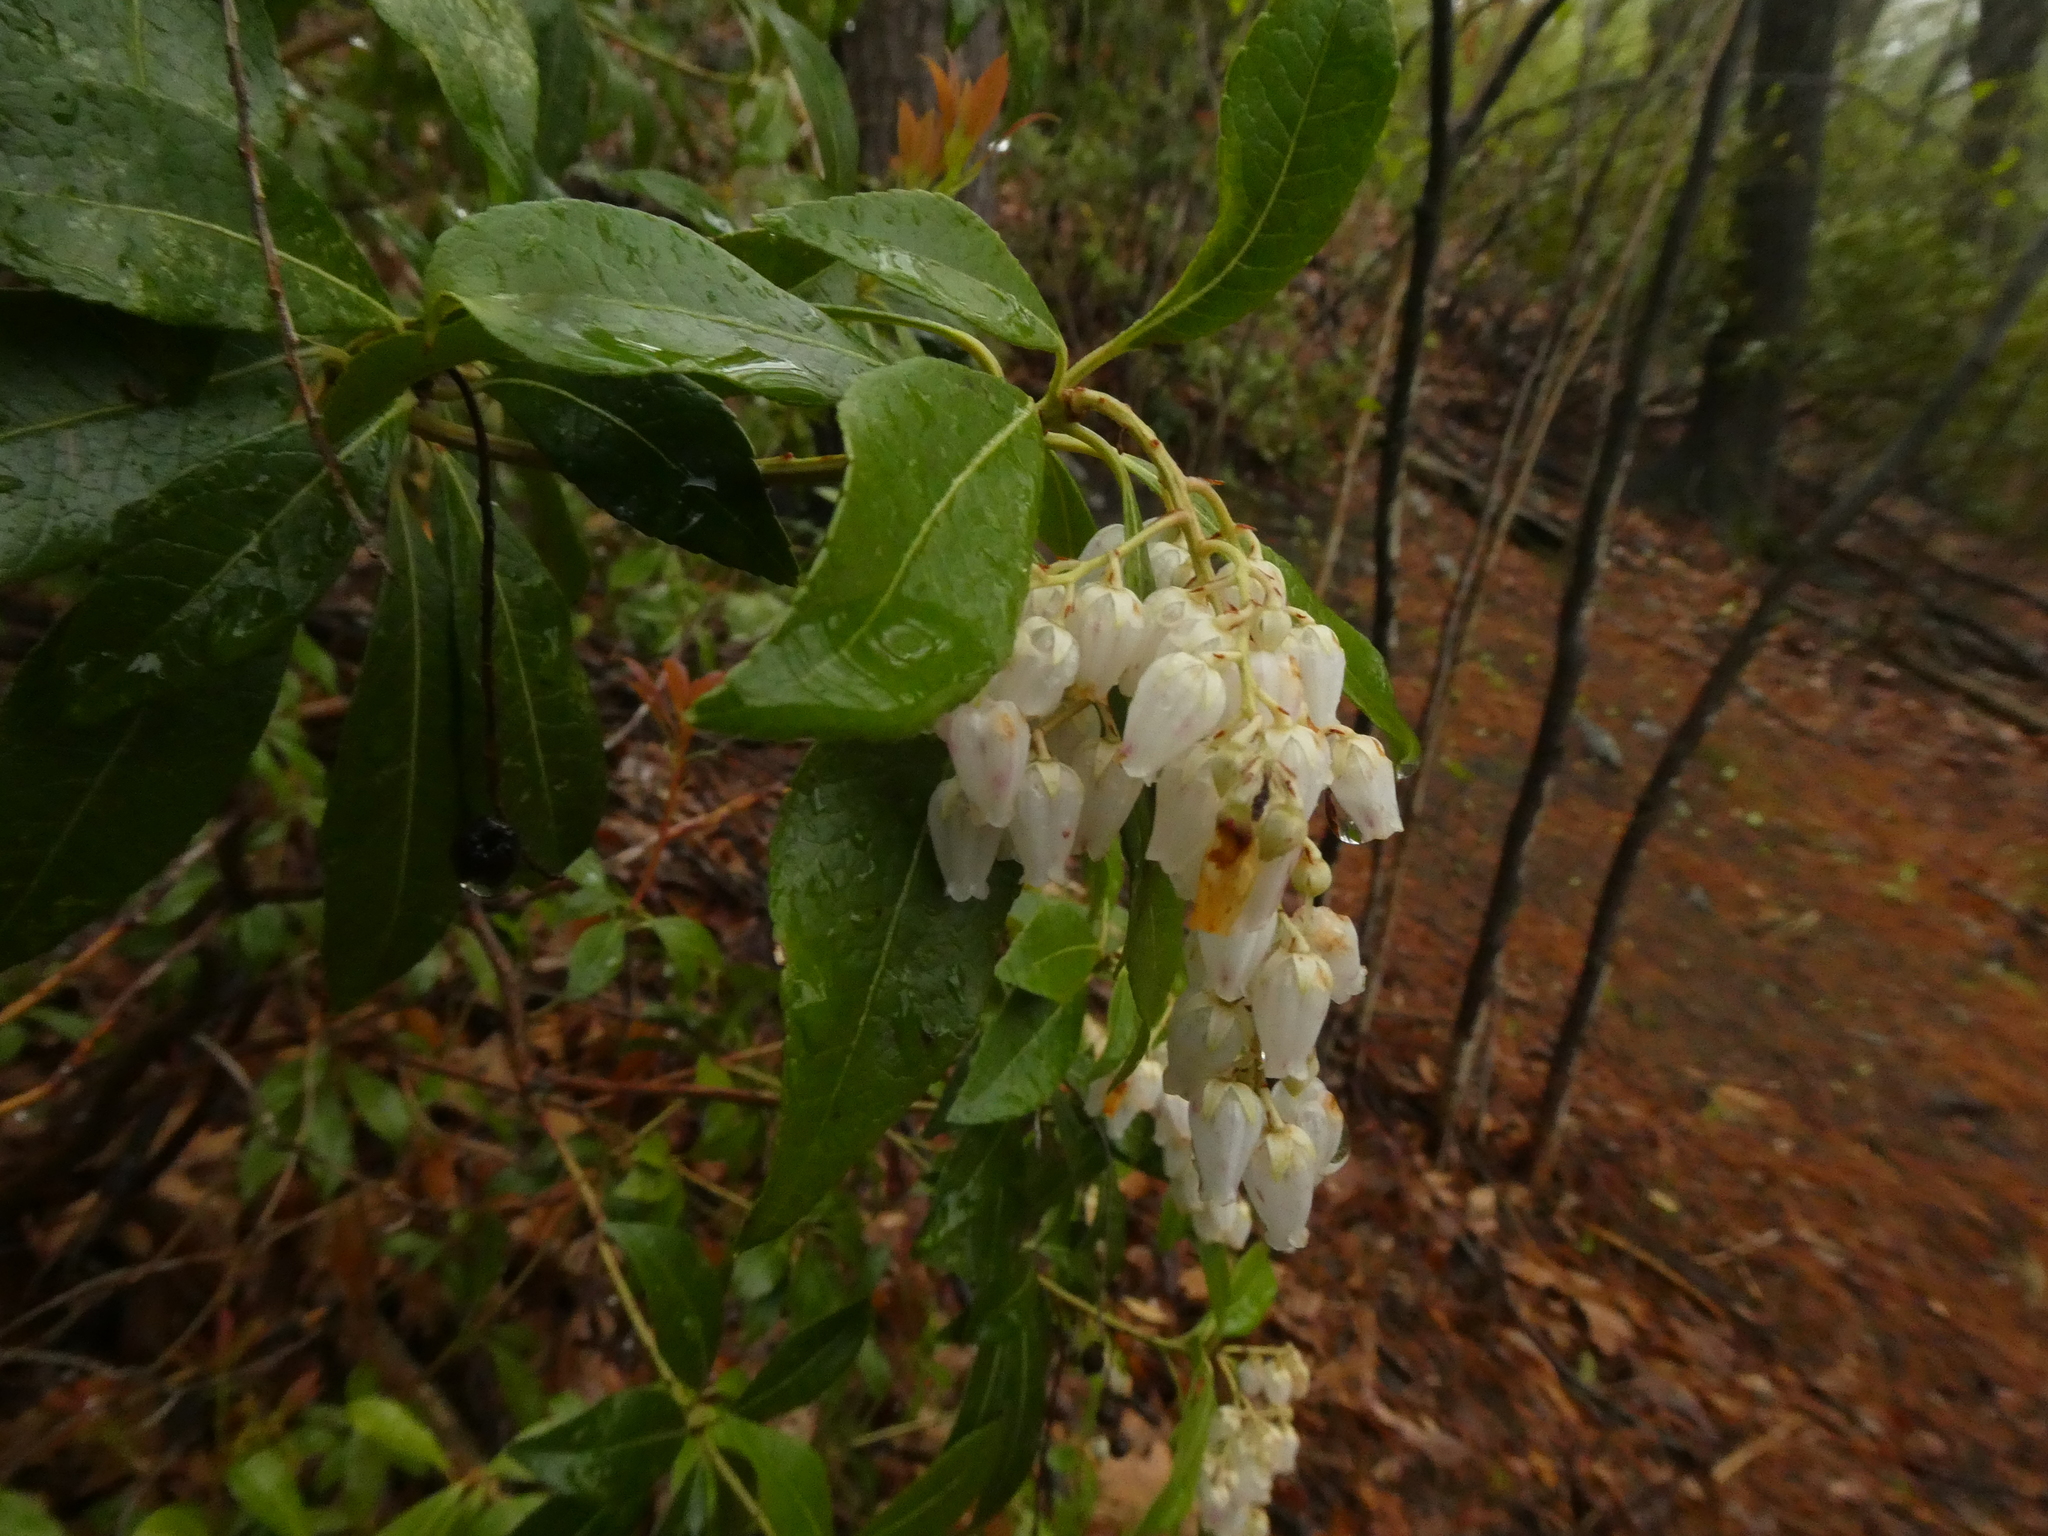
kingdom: Plantae
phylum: Tracheophyta
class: Magnoliopsida
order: Ericales
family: Ericaceae
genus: Pieris
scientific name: Pieris japonica
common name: Japanese pieris
